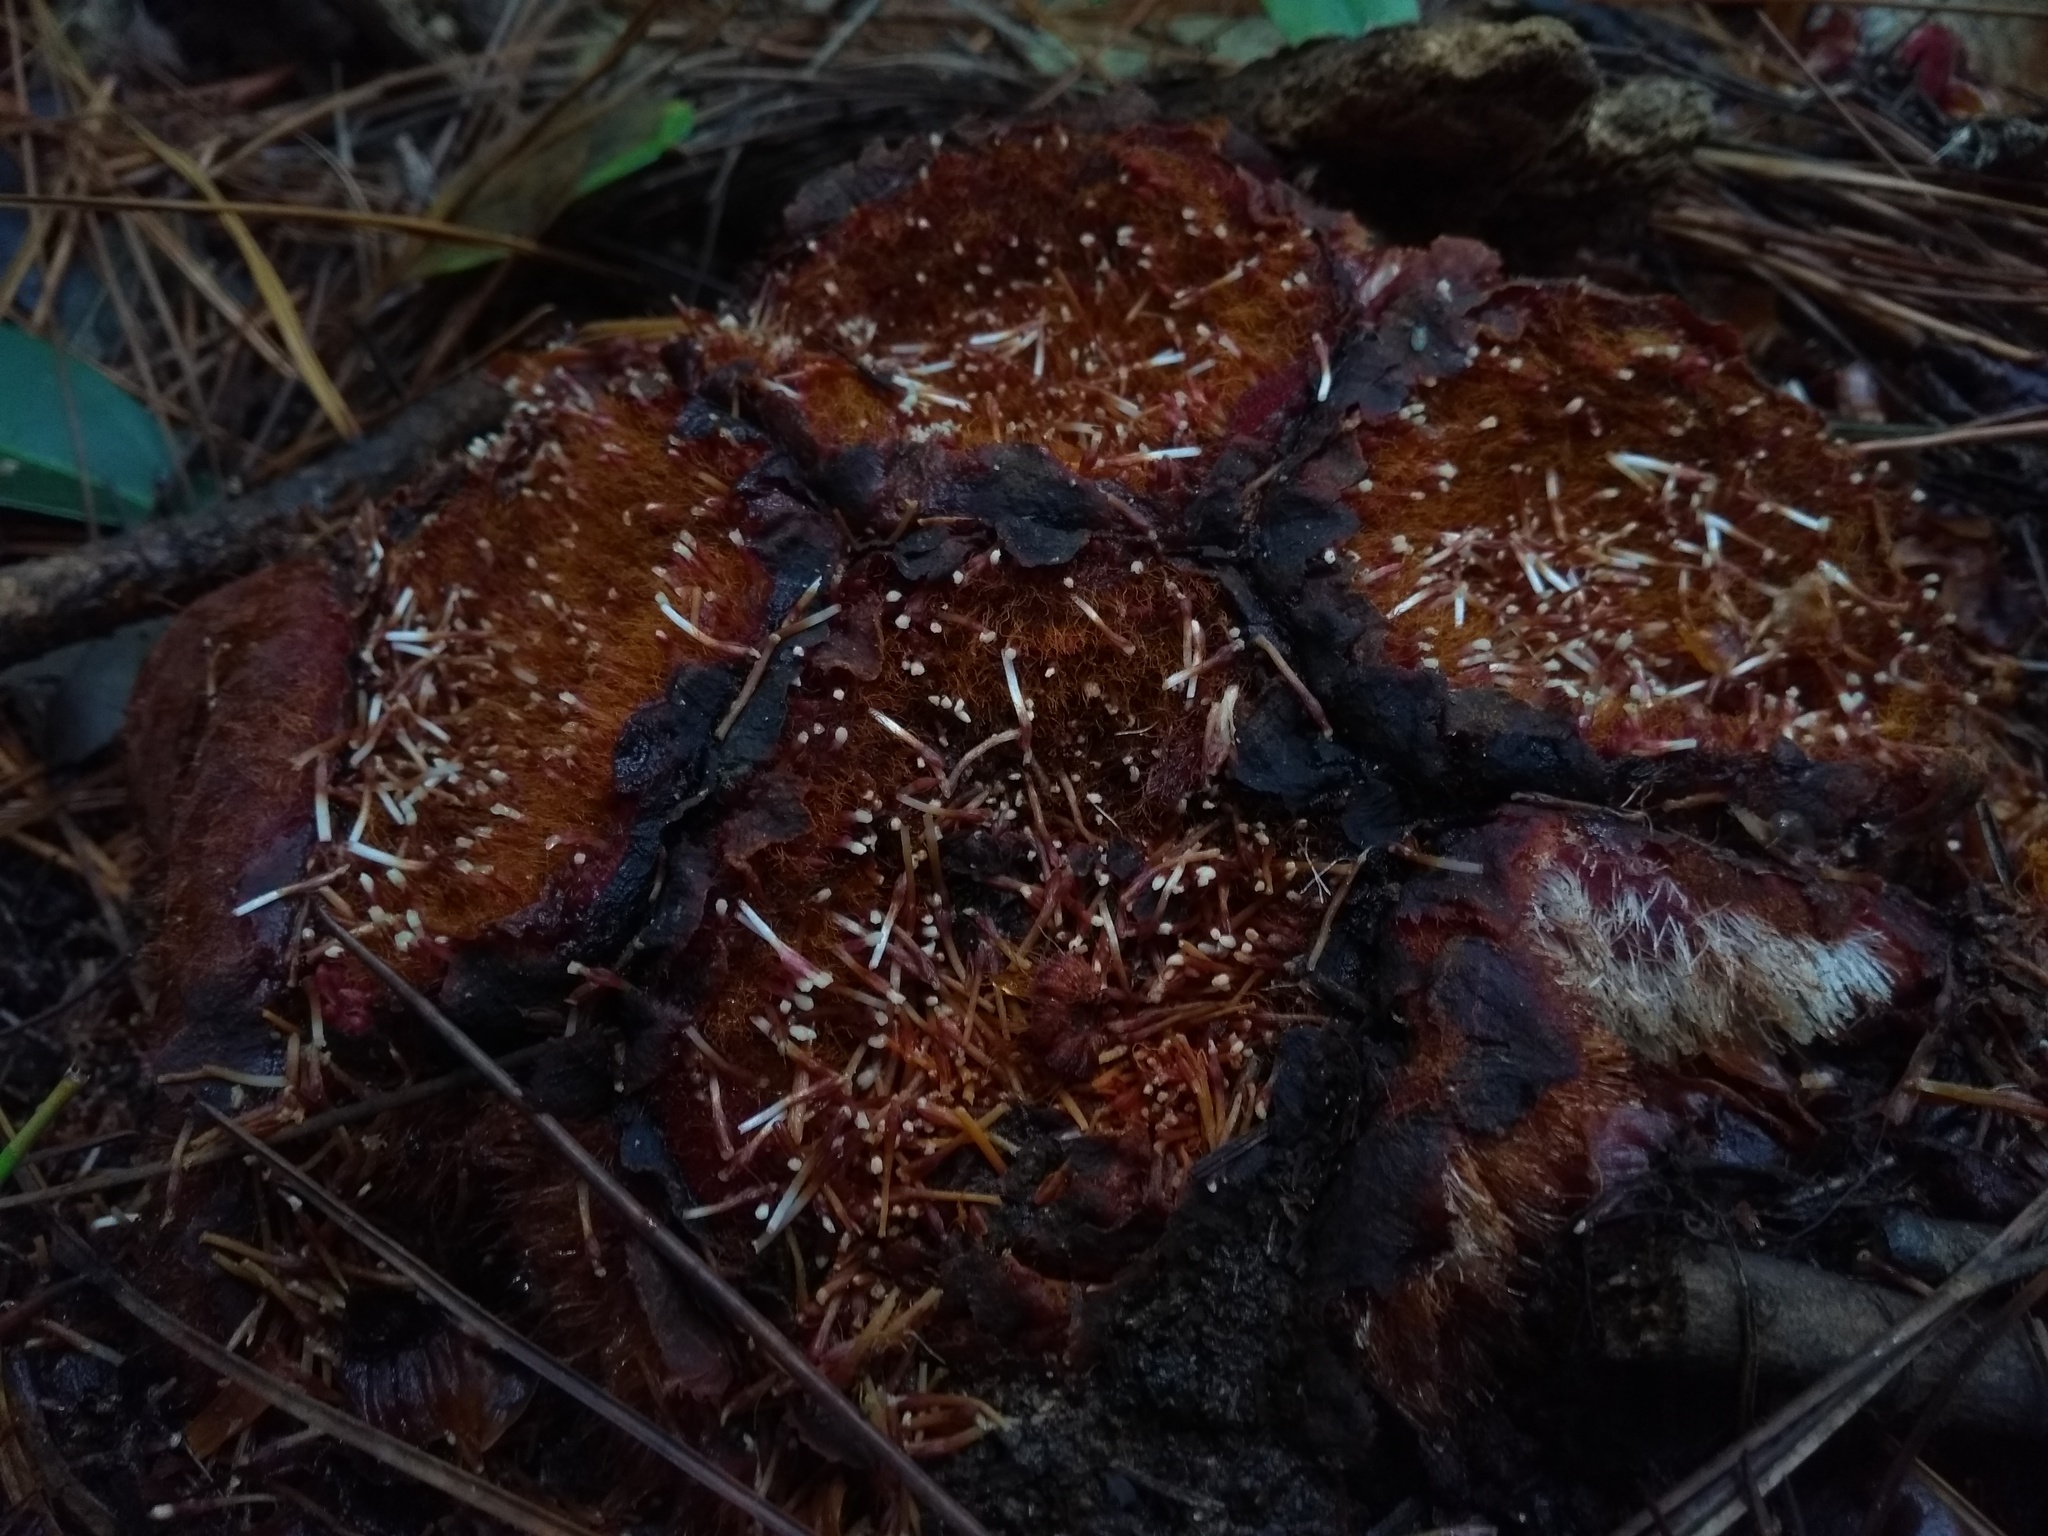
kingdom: Plantae
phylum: Tracheophyta
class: Magnoliopsida
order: Santalales
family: Balanophoraceae
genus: Scybalium
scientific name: Scybalium fungiforme
